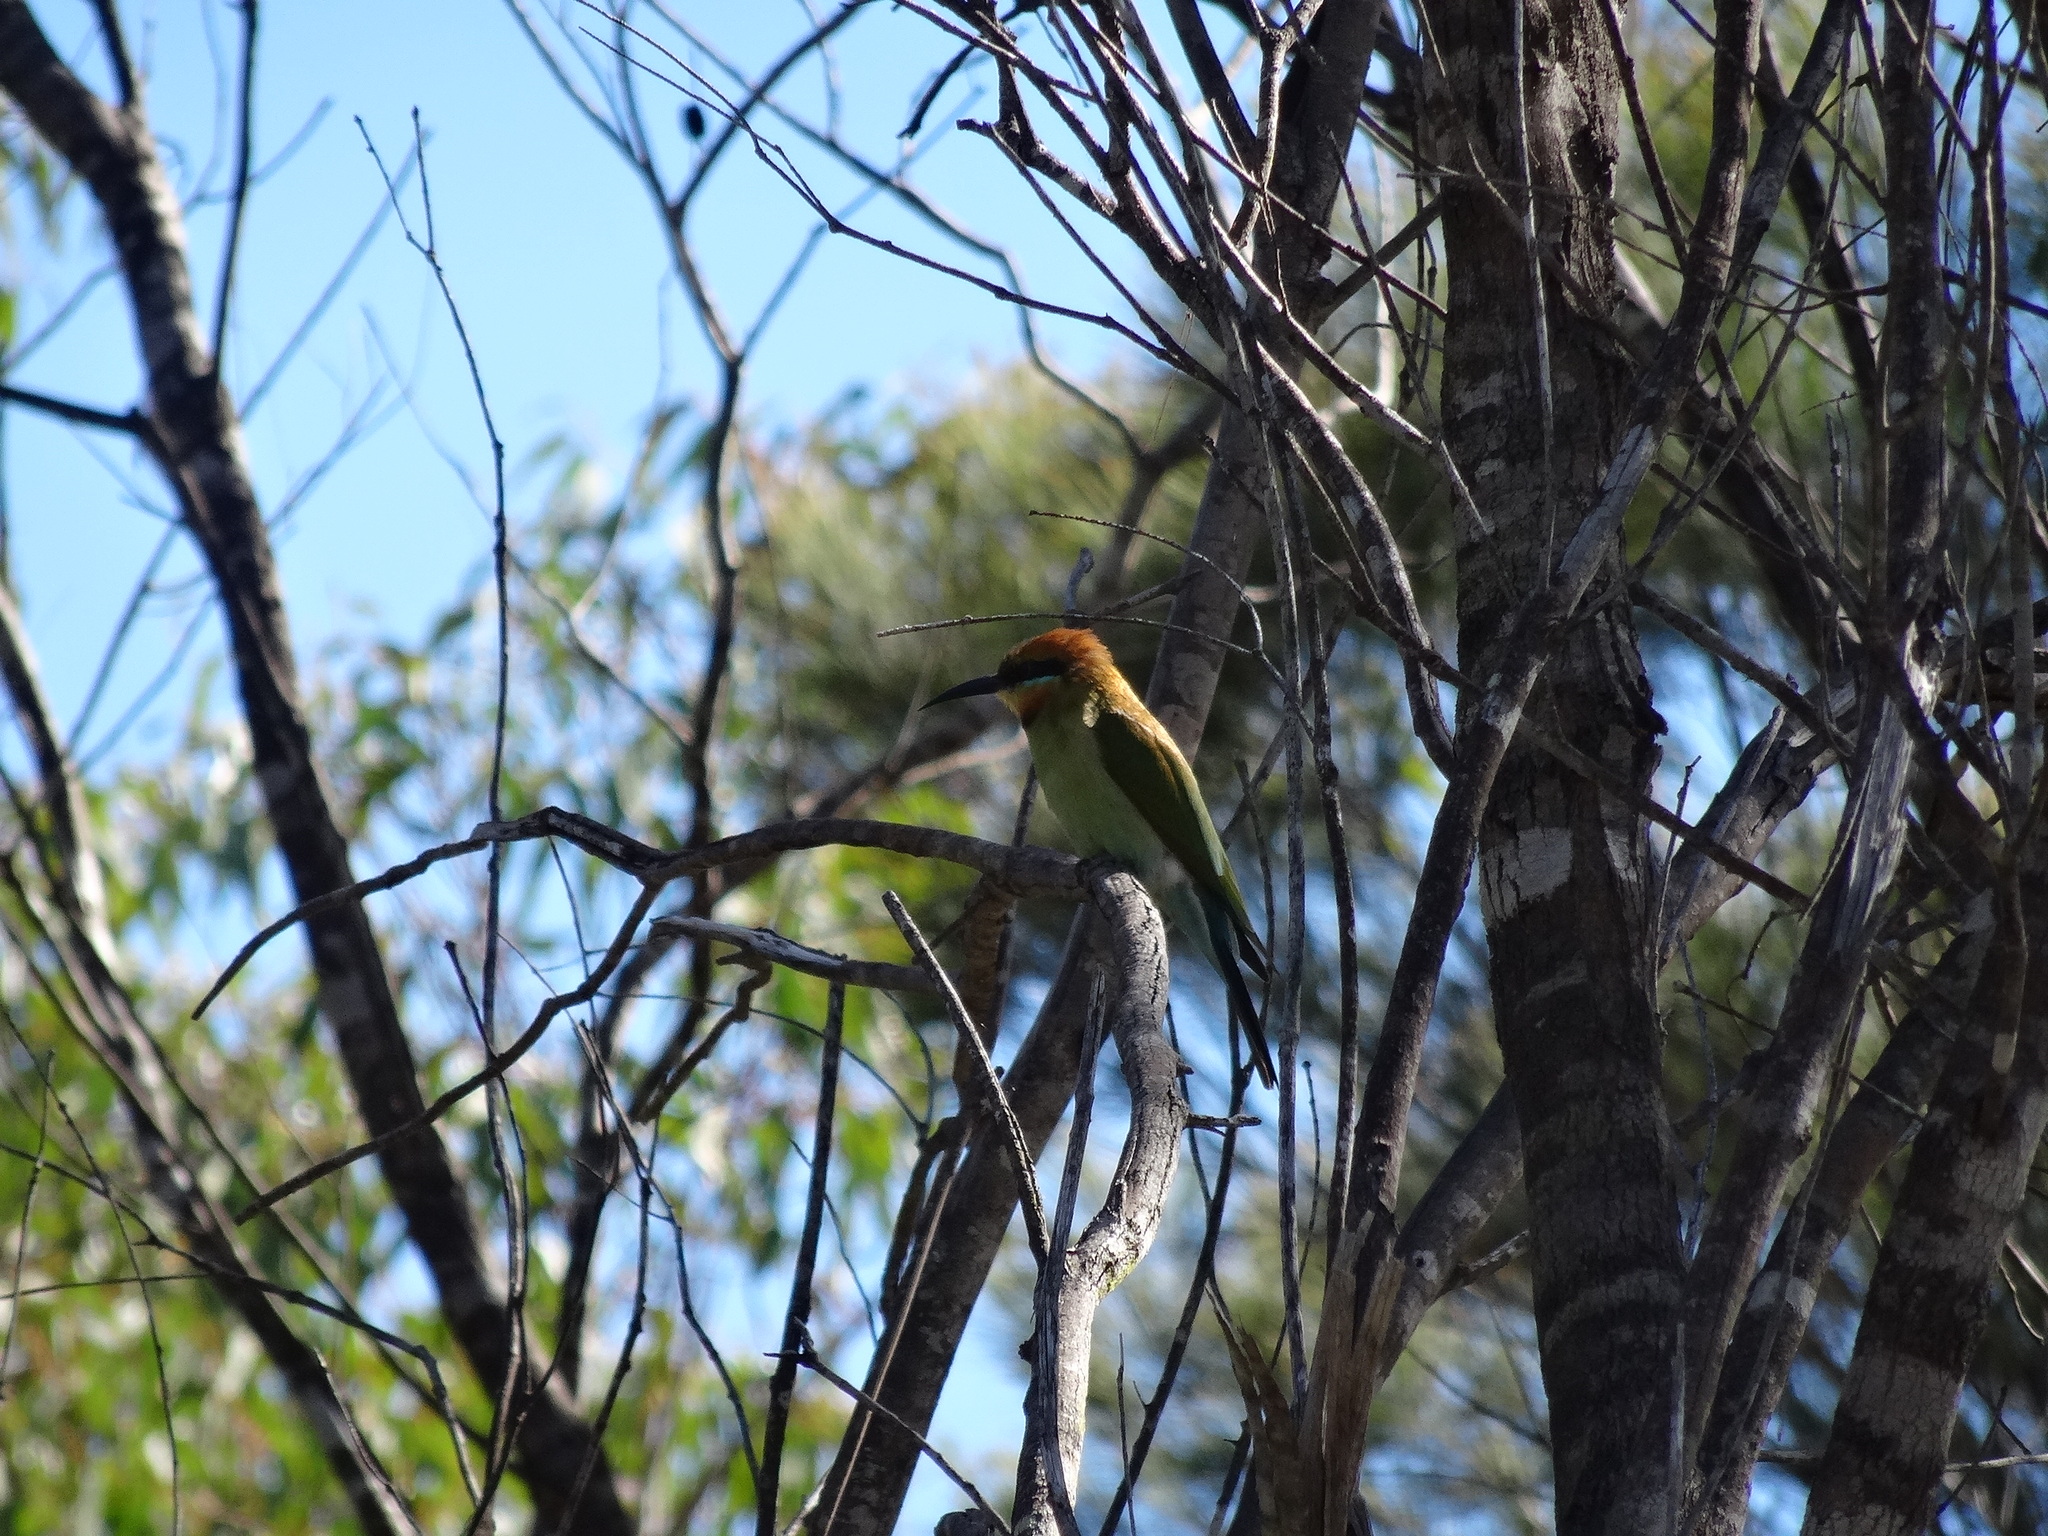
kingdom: Animalia
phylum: Chordata
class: Aves
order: Coraciiformes
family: Meropidae
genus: Merops
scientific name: Merops ornatus
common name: Rainbow bee-eater
